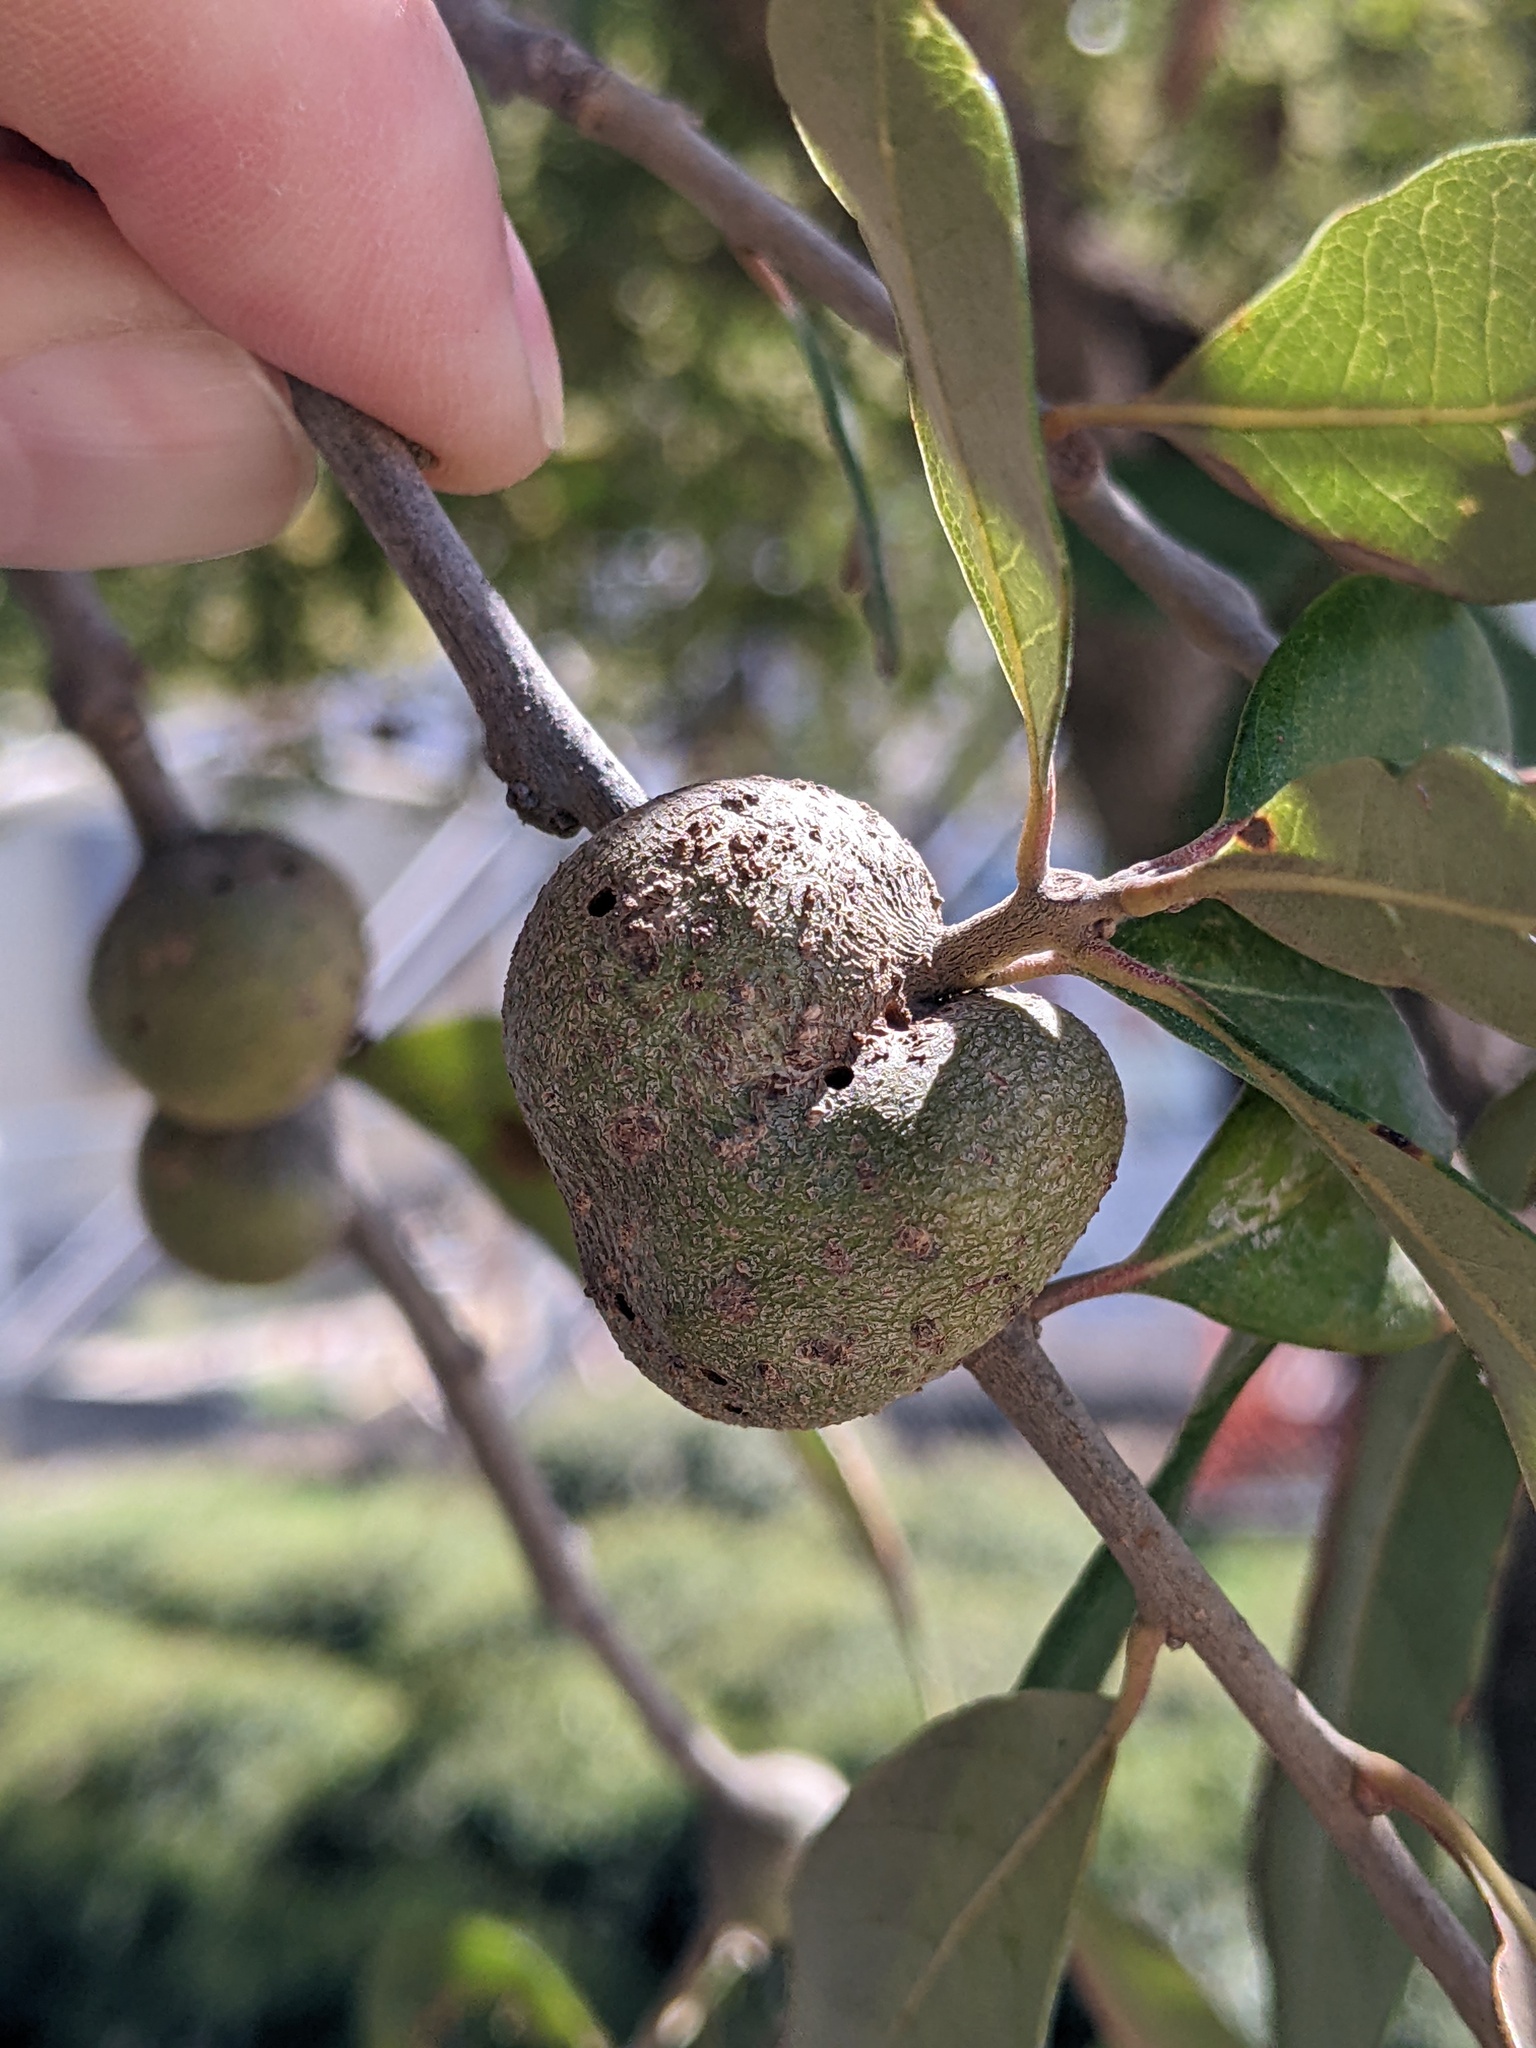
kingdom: Animalia
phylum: Arthropoda
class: Insecta
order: Hymenoptera
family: Cynipidae
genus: Callirhytis
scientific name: Callirhytis
